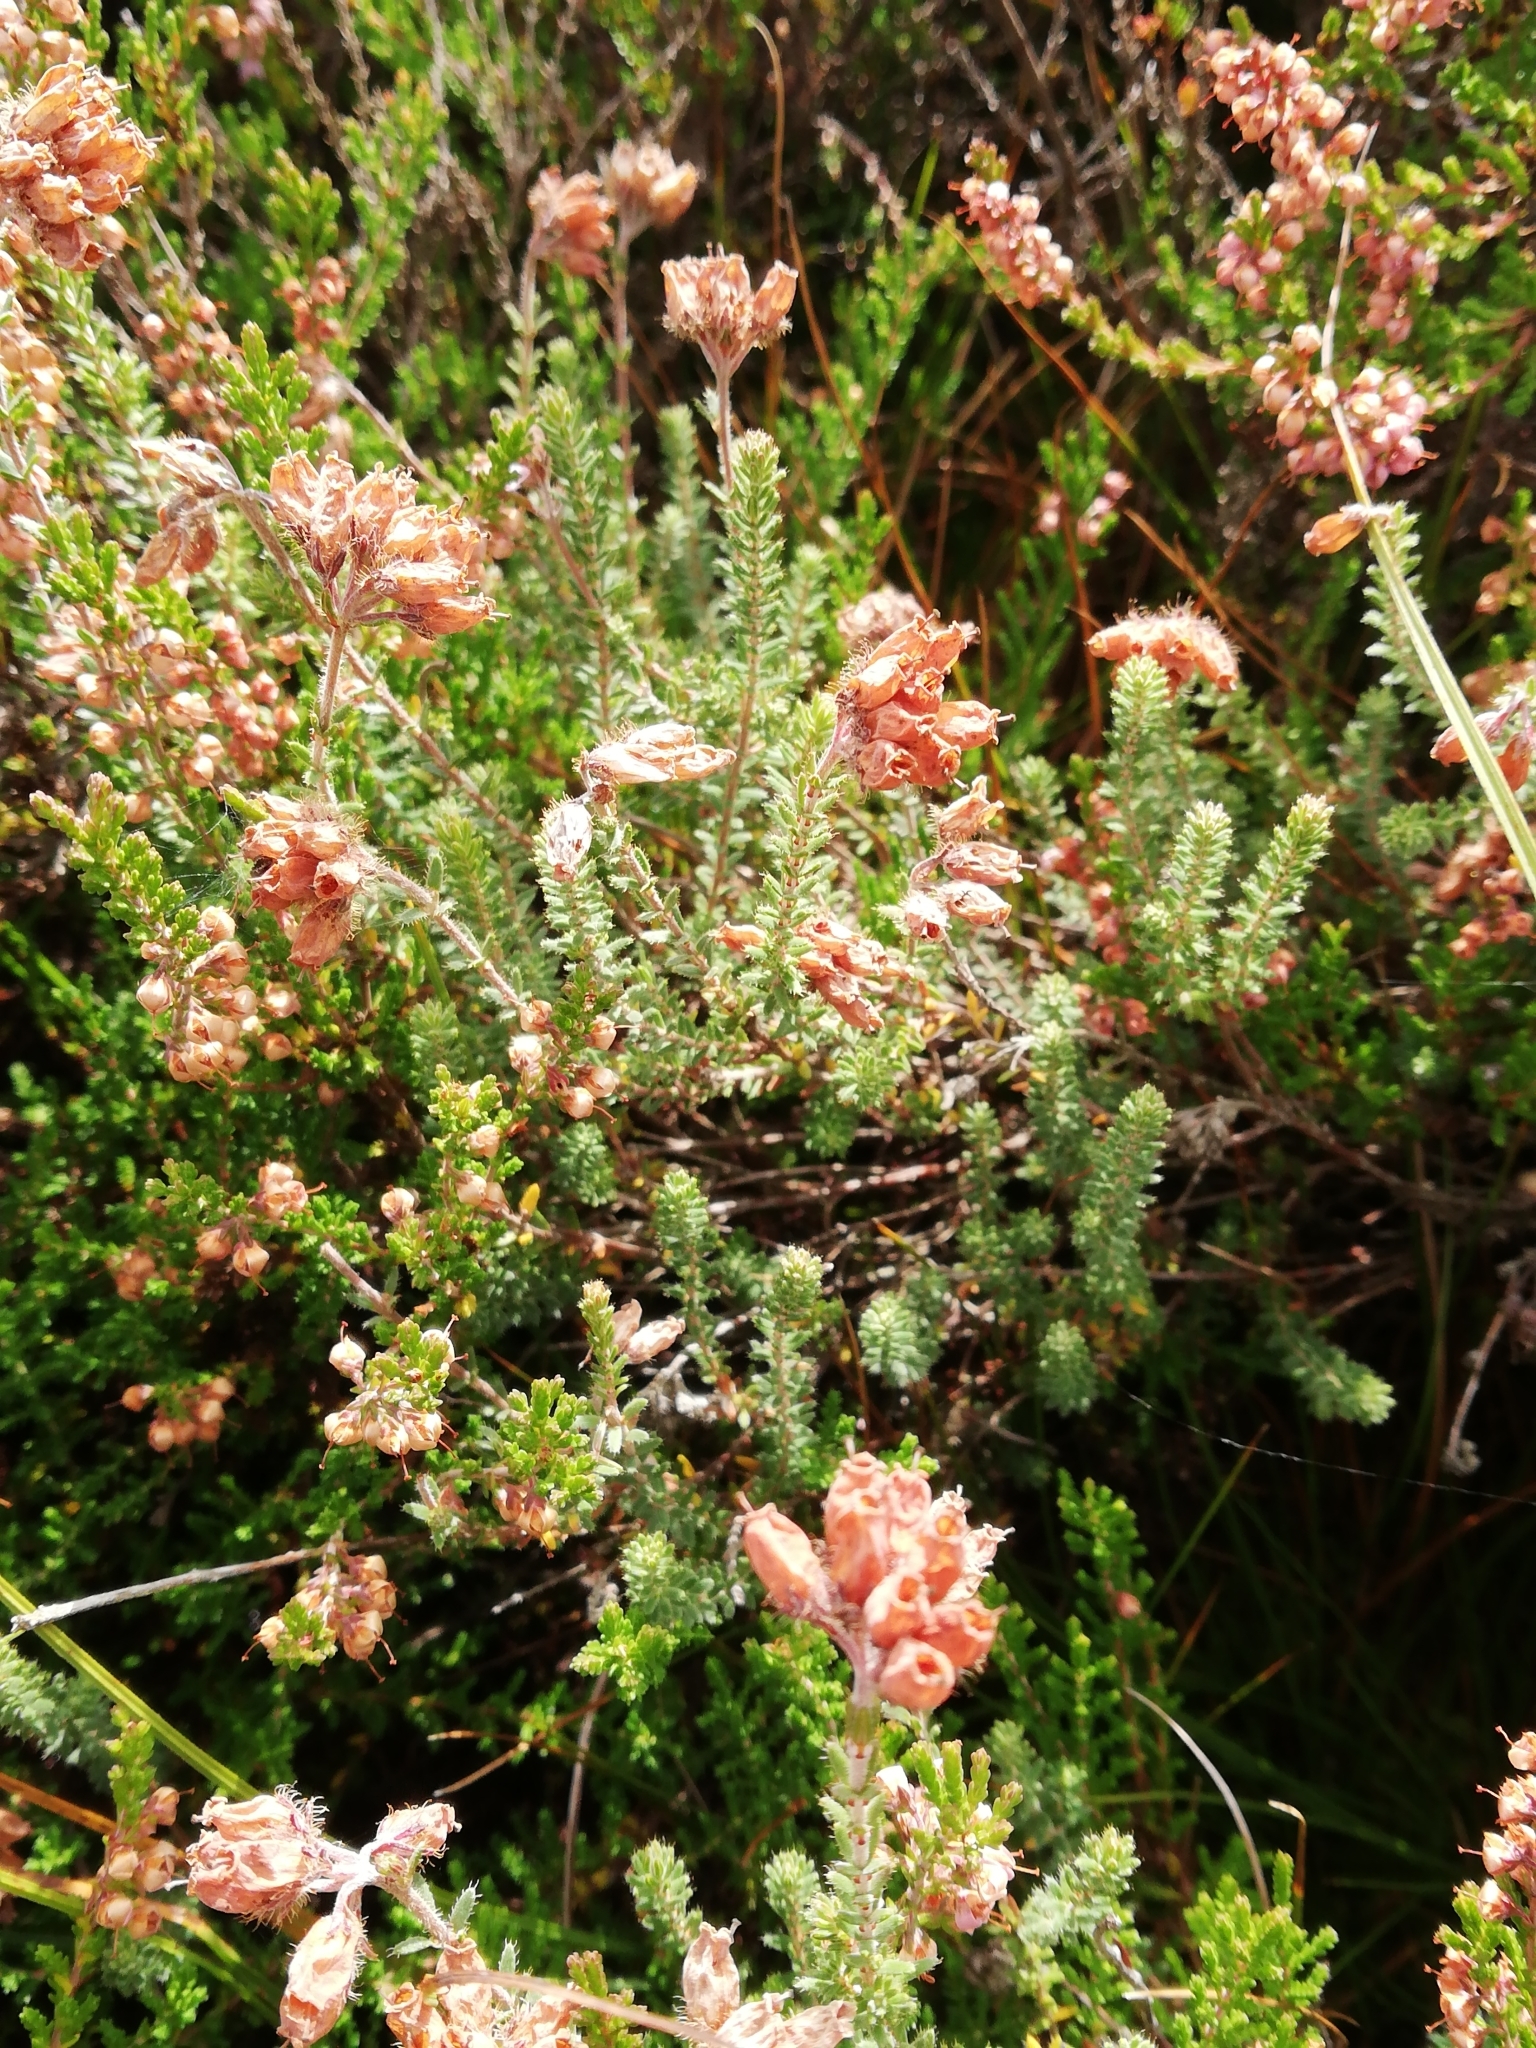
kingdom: Plantae
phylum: Tracheophyta
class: Magnoliopsida
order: Ericales
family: Ericaceae
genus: Erica
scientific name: Erica tetralix
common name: Cross-leaved heath
